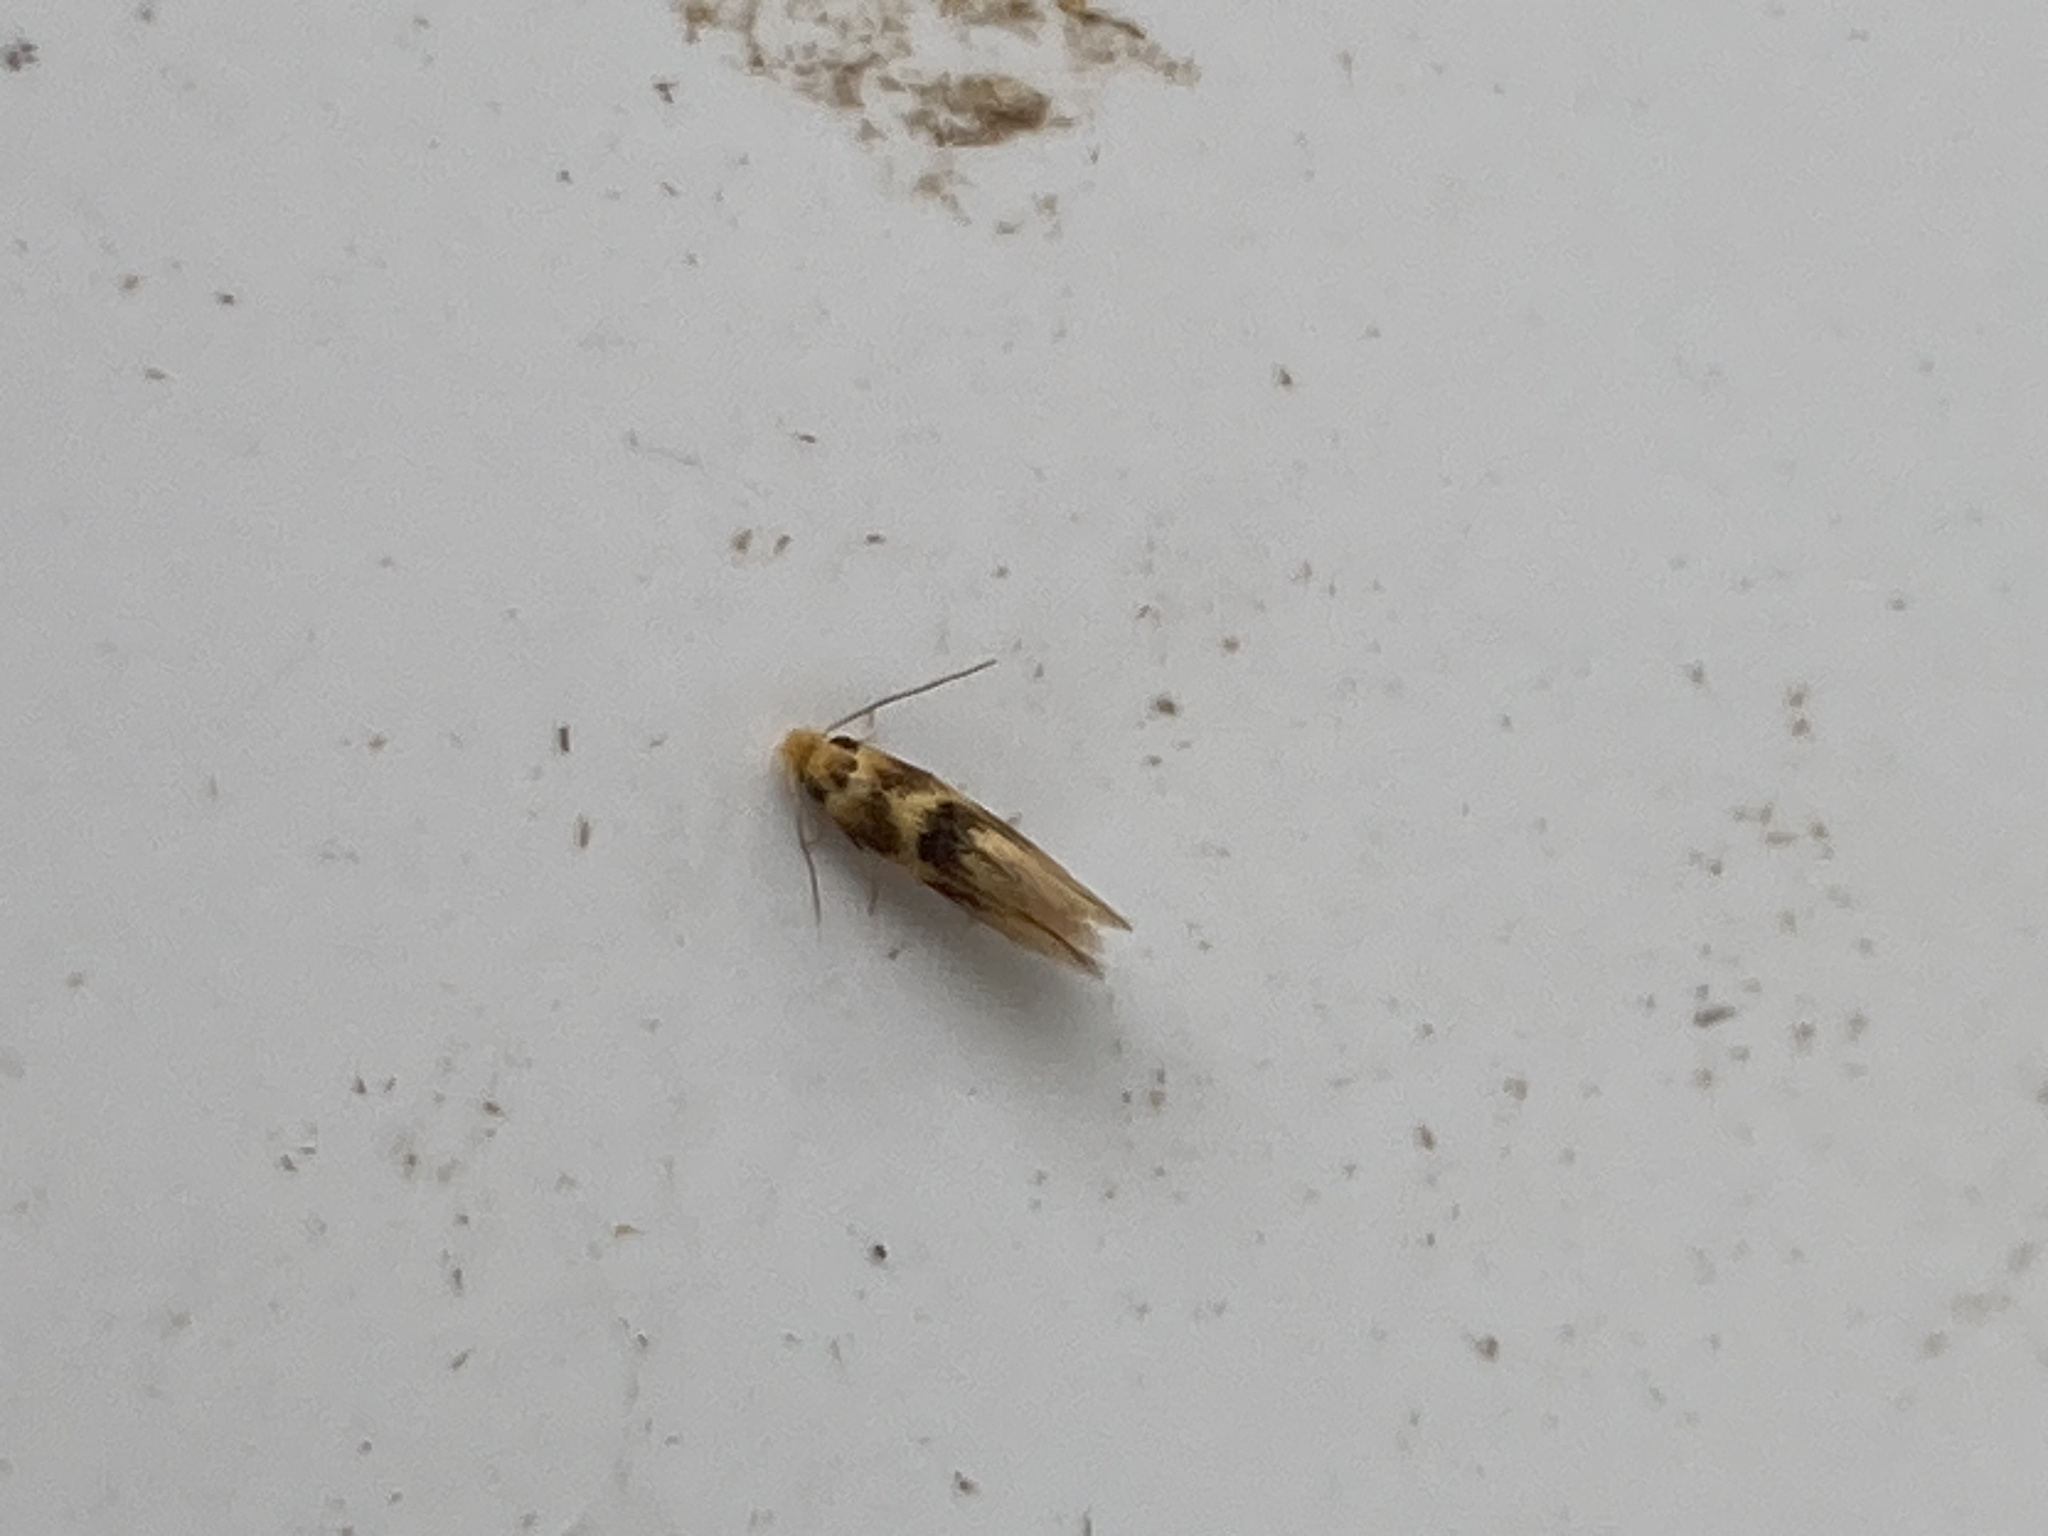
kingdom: Animalia
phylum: Arthropoda
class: Insecta
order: Lepidoptera
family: Bucculatricidae
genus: Bucculatrix
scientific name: Bucculatrix thoracella
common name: Lime bent-wing
